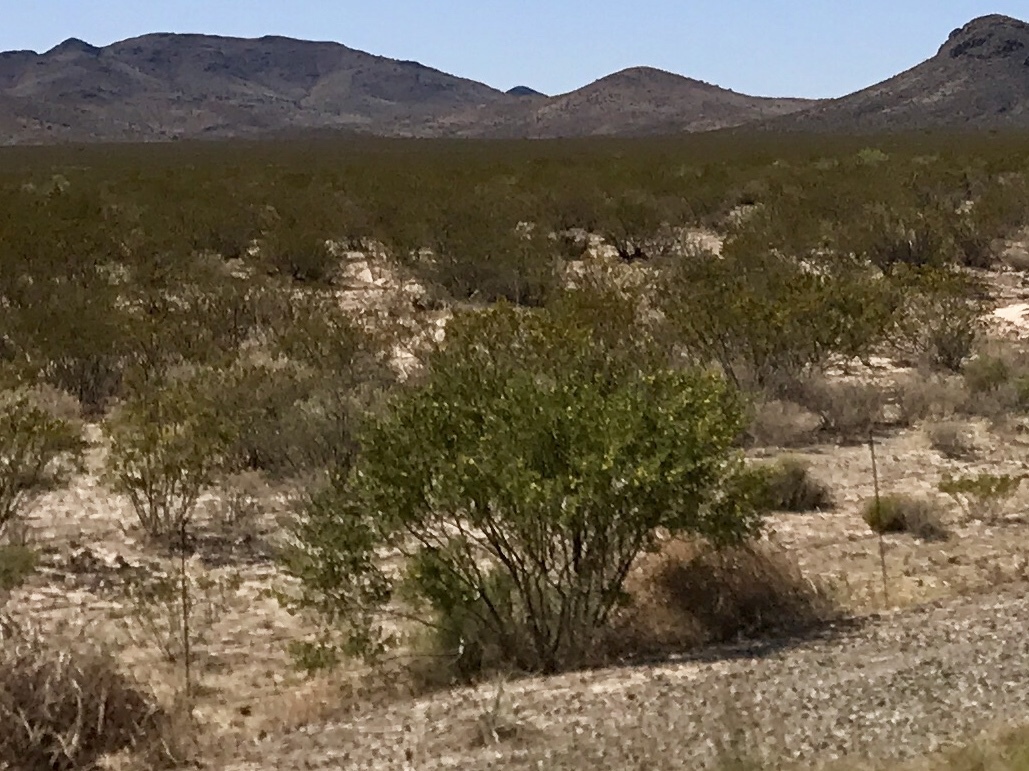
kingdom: Plantae
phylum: Tracheophyta
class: Magnoliopsida
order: Zygophyllales
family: Zygophyllaceae
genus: Larrea
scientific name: Larrea tridentata
